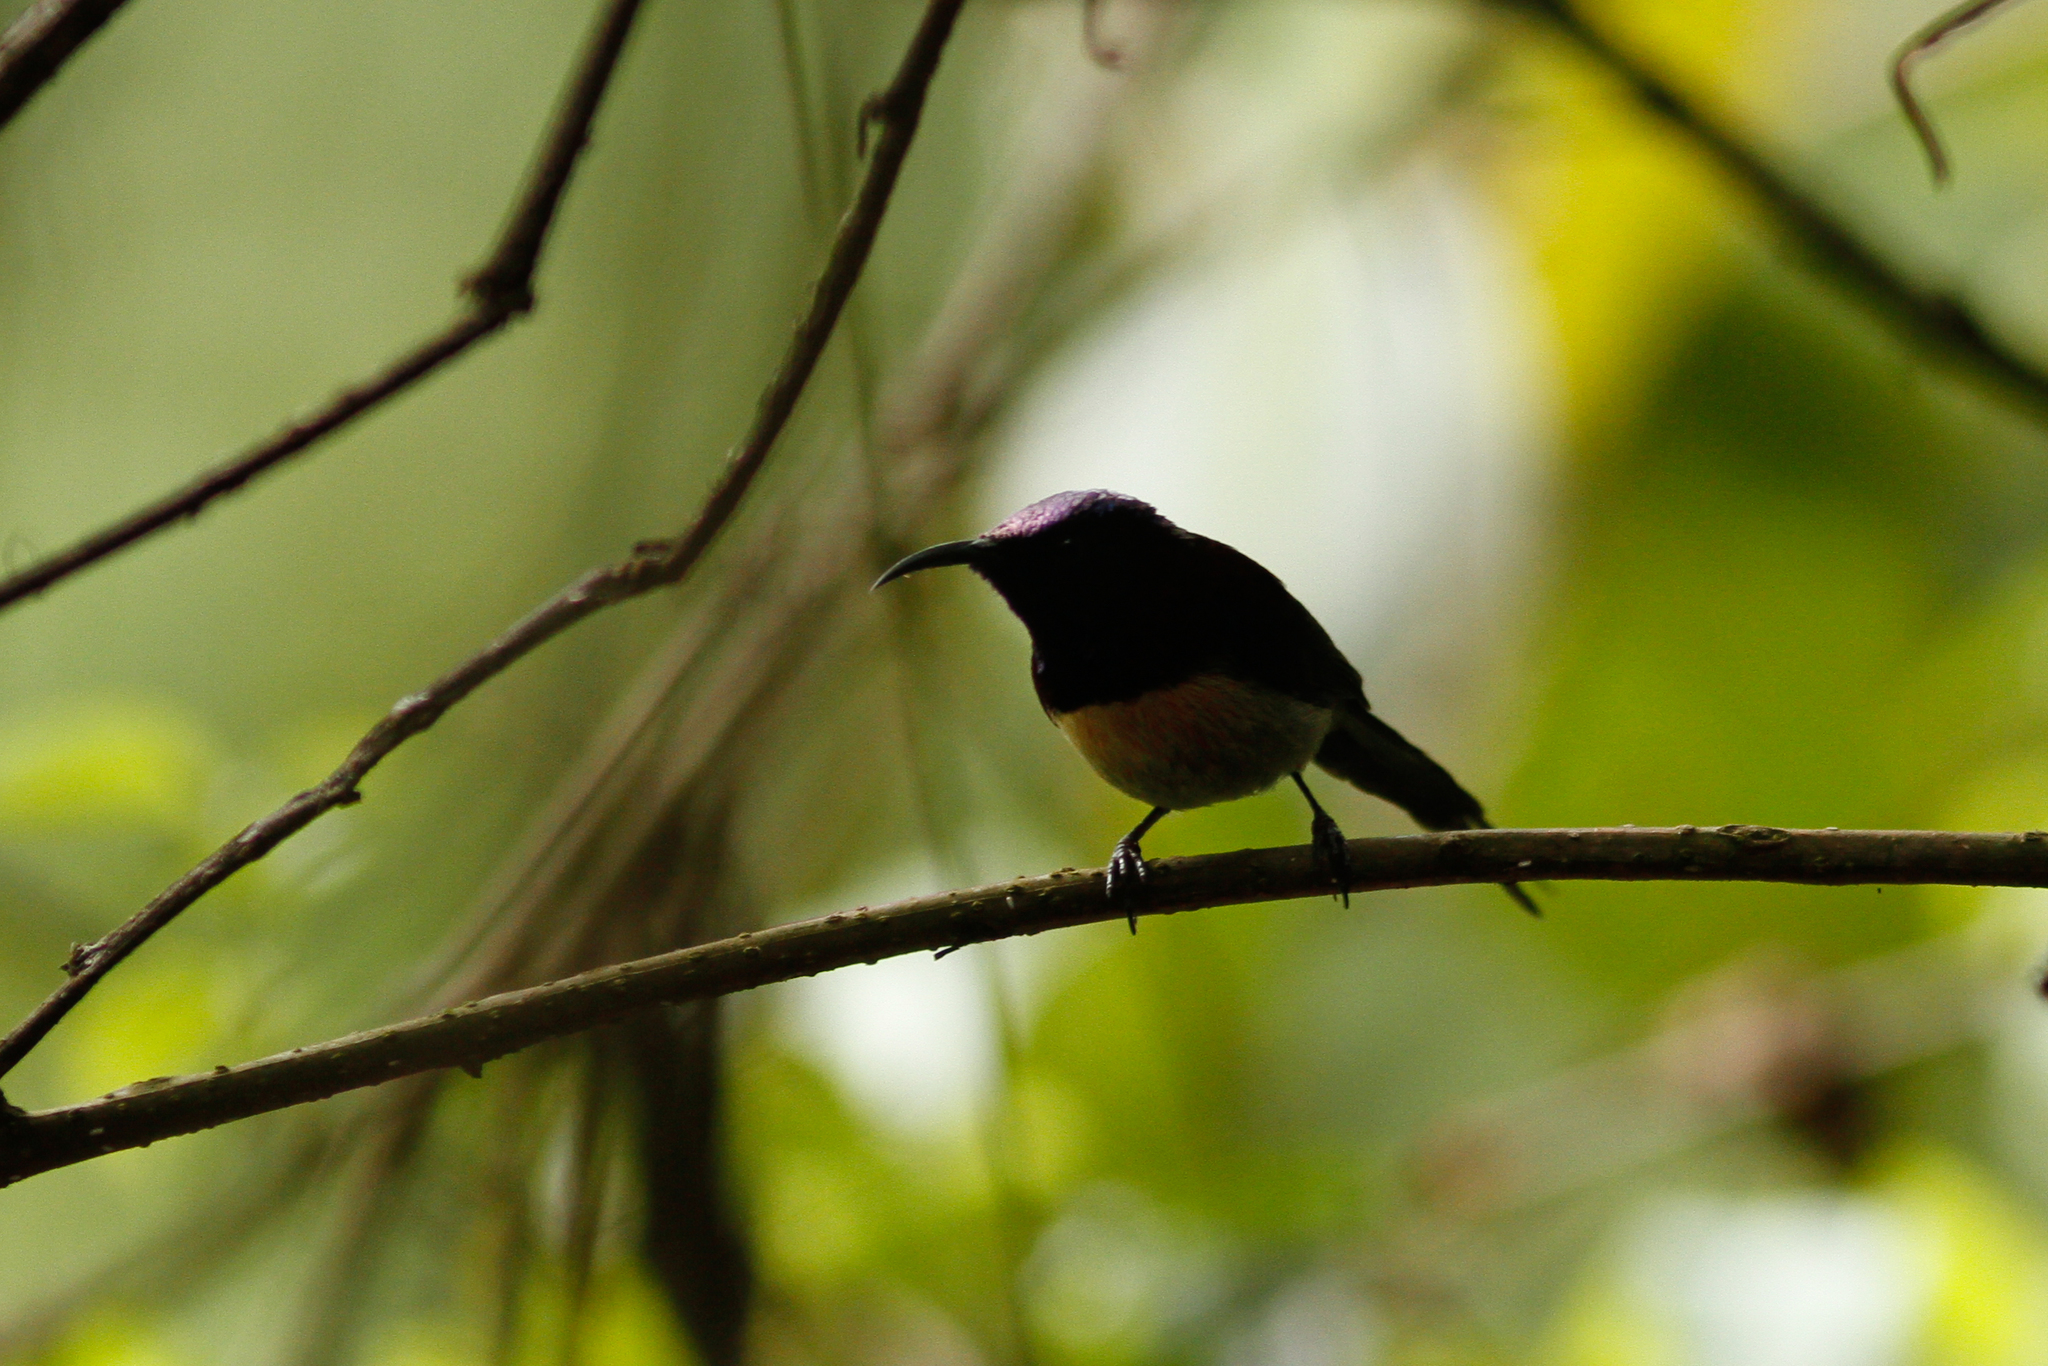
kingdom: Animalia
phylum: Chordata
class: Aves
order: Passeriformes
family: Nectariniidae
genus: Aethopyga
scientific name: Aethopyga saturata
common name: Black-throated sunbird
